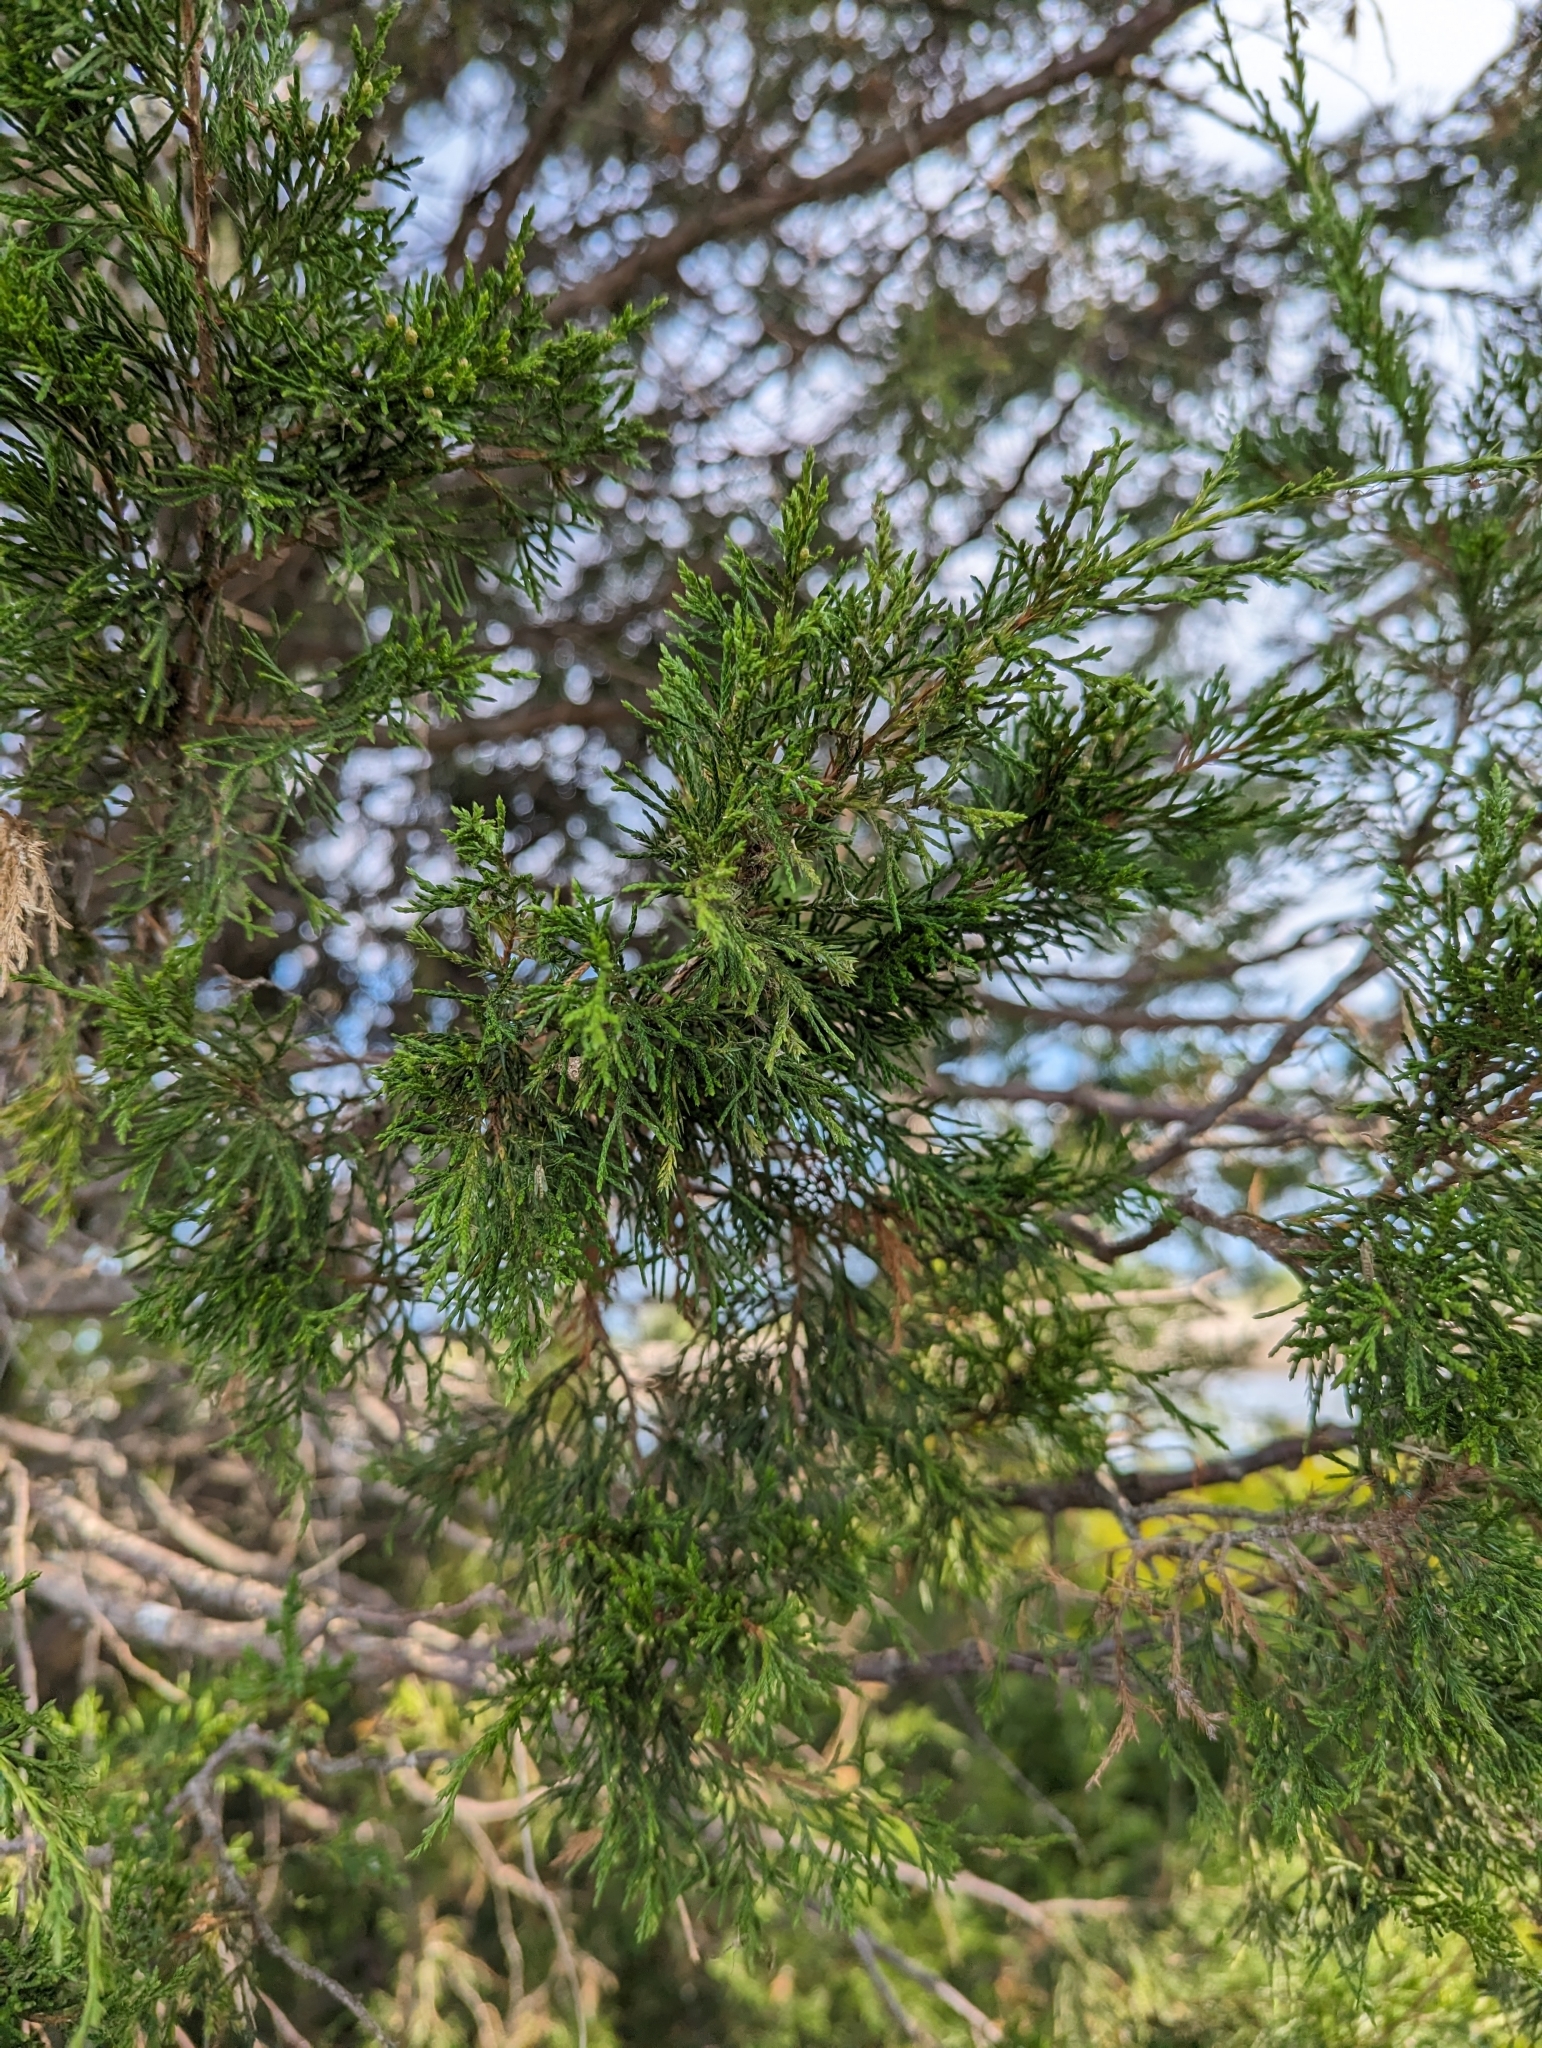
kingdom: Plantae
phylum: Tracheophyta
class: Pinopsida
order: Pinales
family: Cupressaceae
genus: Juniperus
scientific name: Juniperus virginiana
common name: Red juniper
